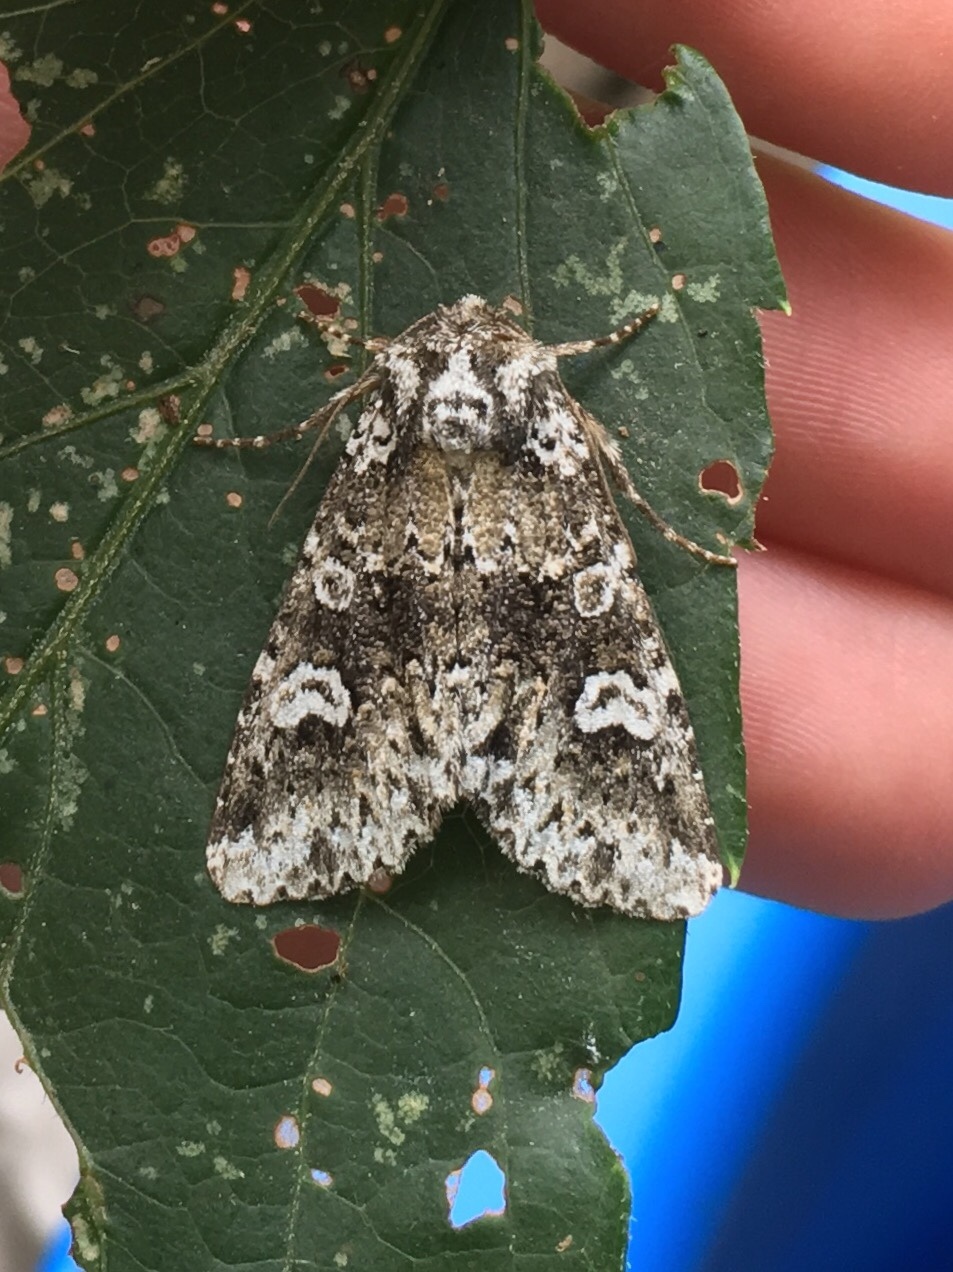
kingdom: Animalia
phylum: Arthropoda
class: Insecta
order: Lepidoptera
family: Noctuidae
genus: Melanchra
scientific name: Melanchra adjuncta
